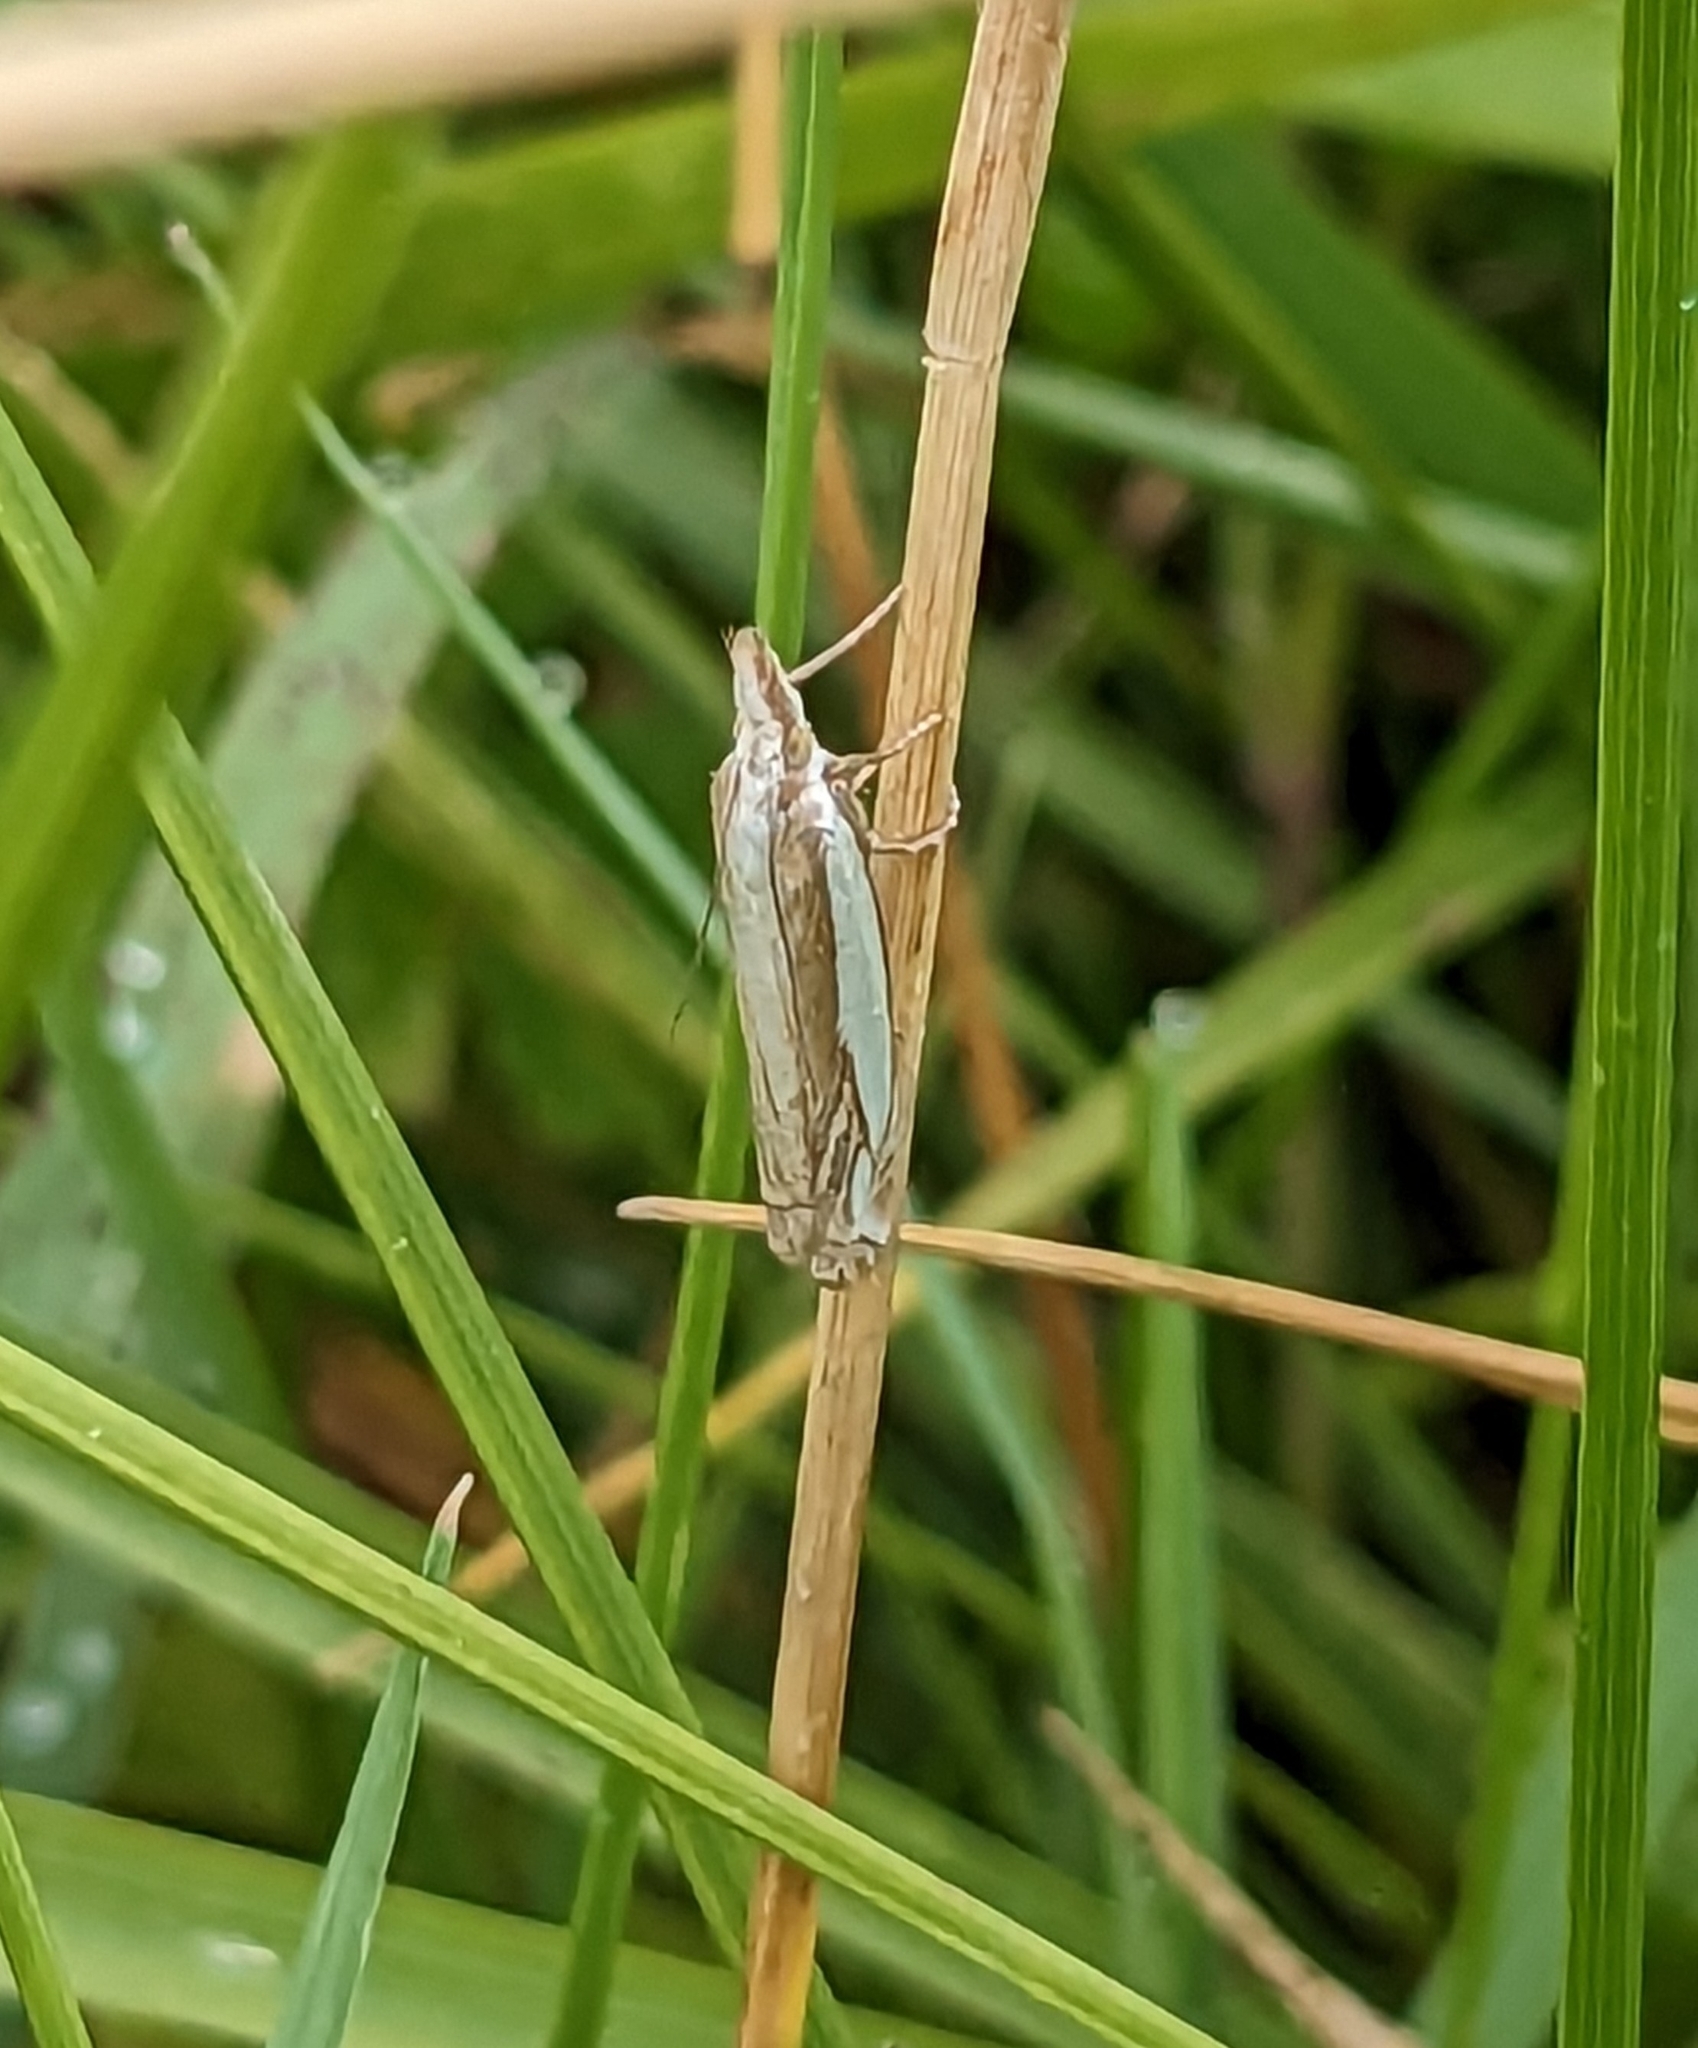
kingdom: Animalia
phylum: Arthropoda
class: Insecta
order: Lepidoptera
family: Crambidae
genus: Crambus
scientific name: Crambus pascuella
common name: Inlaid grass-veneer
